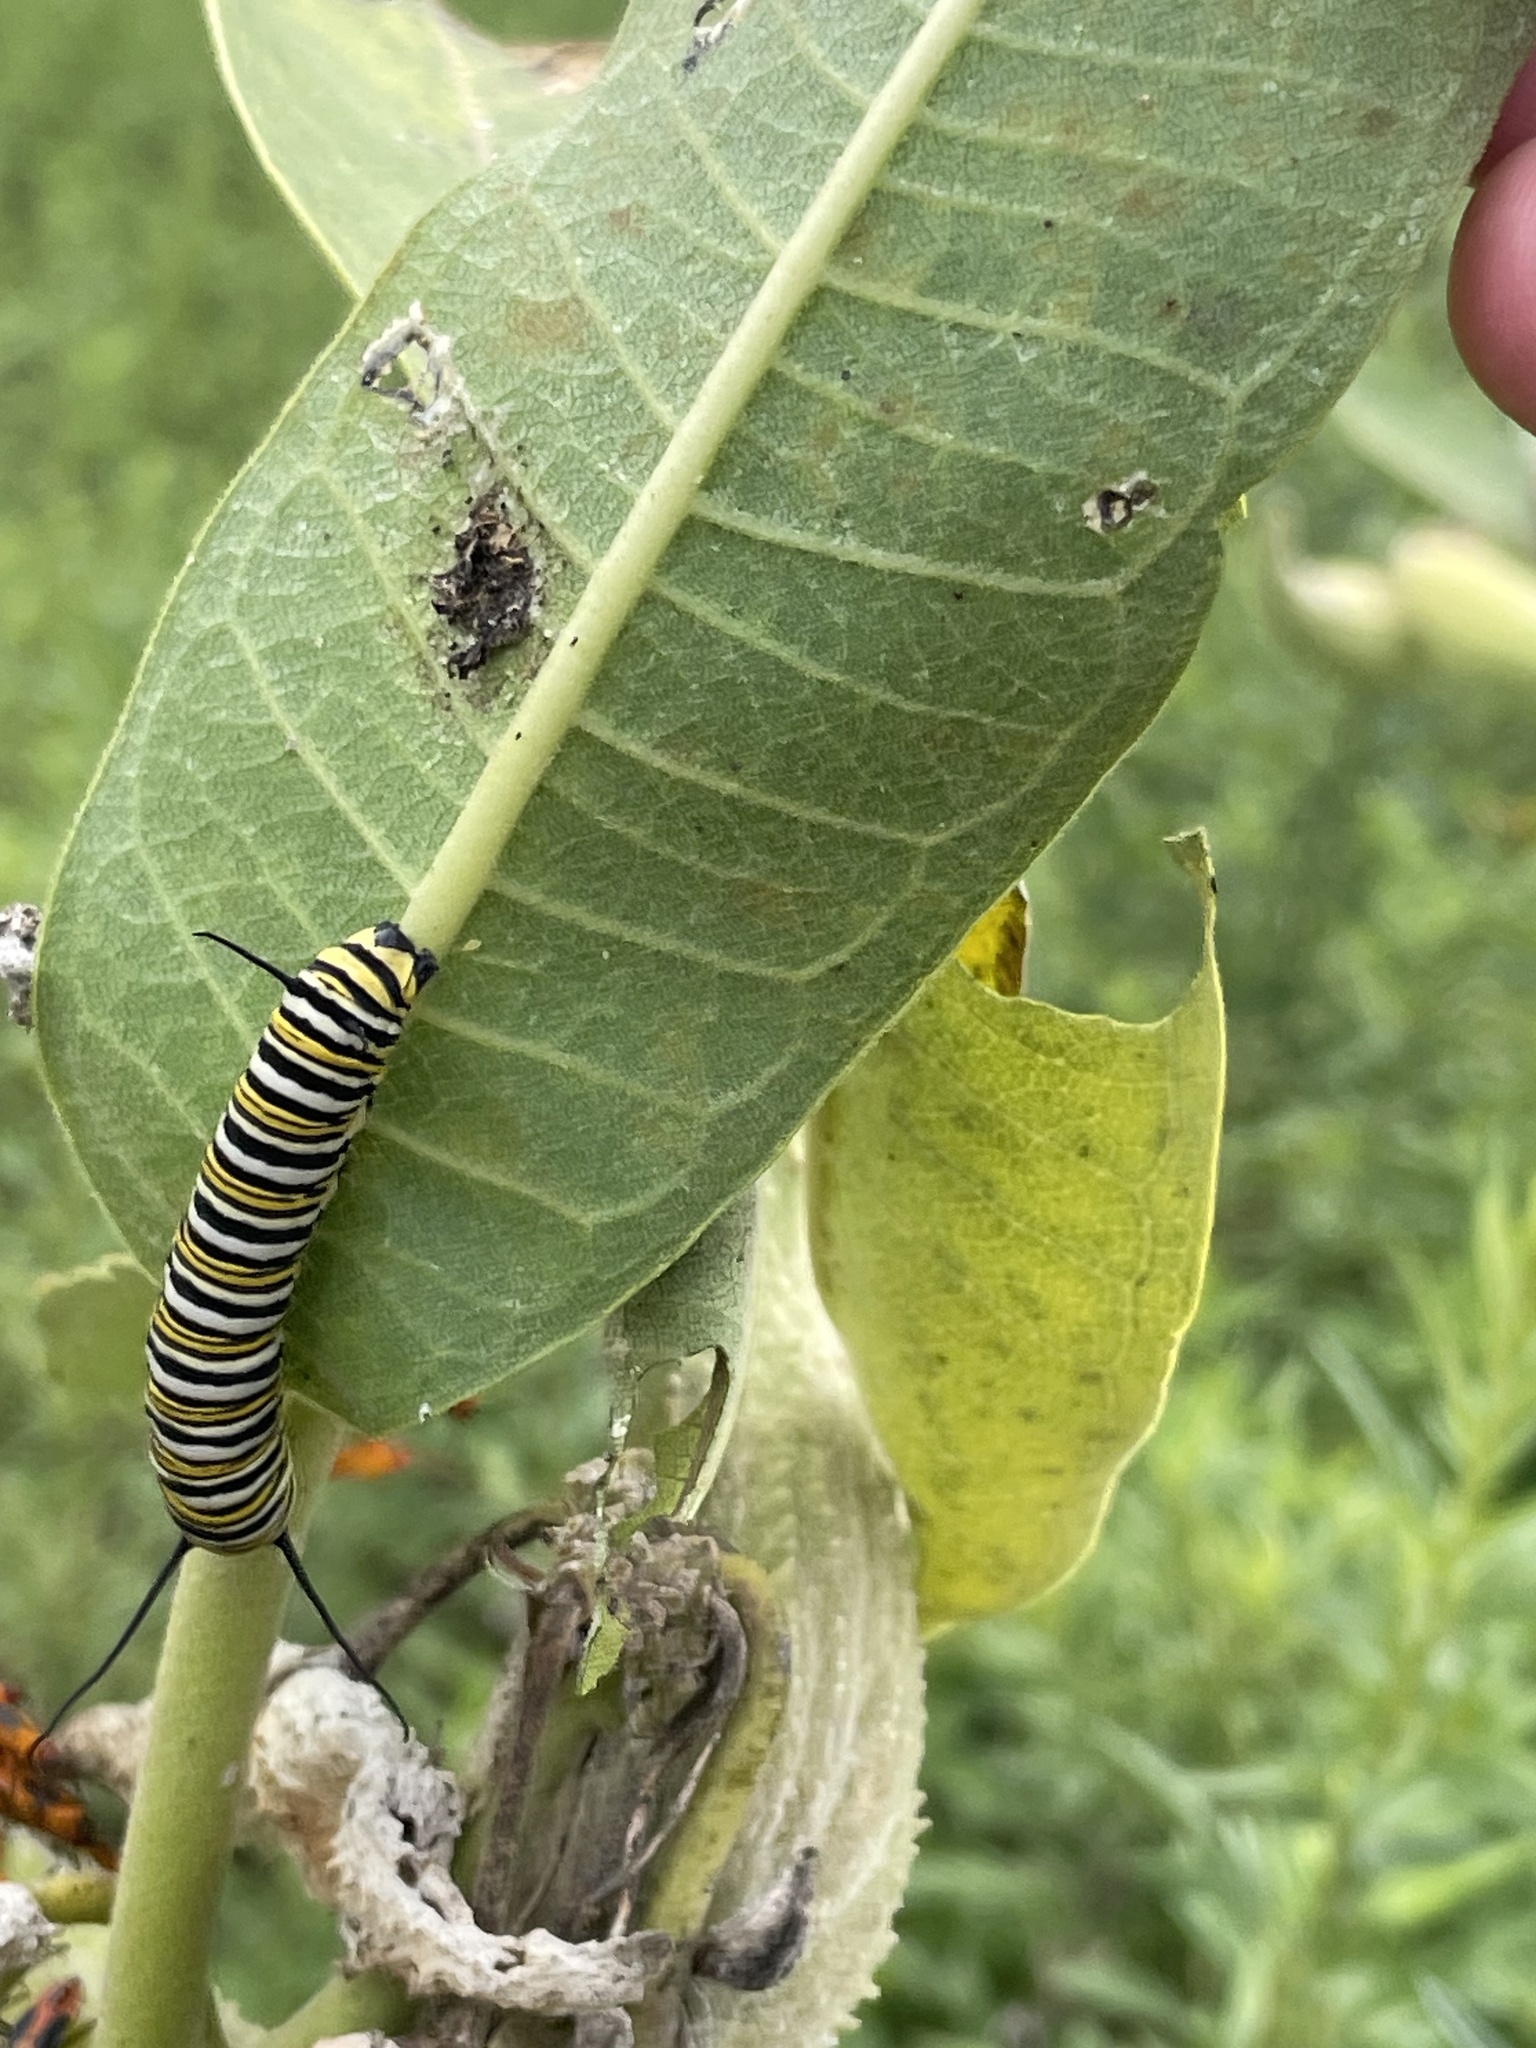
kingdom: Animalia
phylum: Arthropoda
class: Insecta
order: Lepidoptera
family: Nymphalidae
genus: Danaus
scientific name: Danaus plexippus
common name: Monarch
